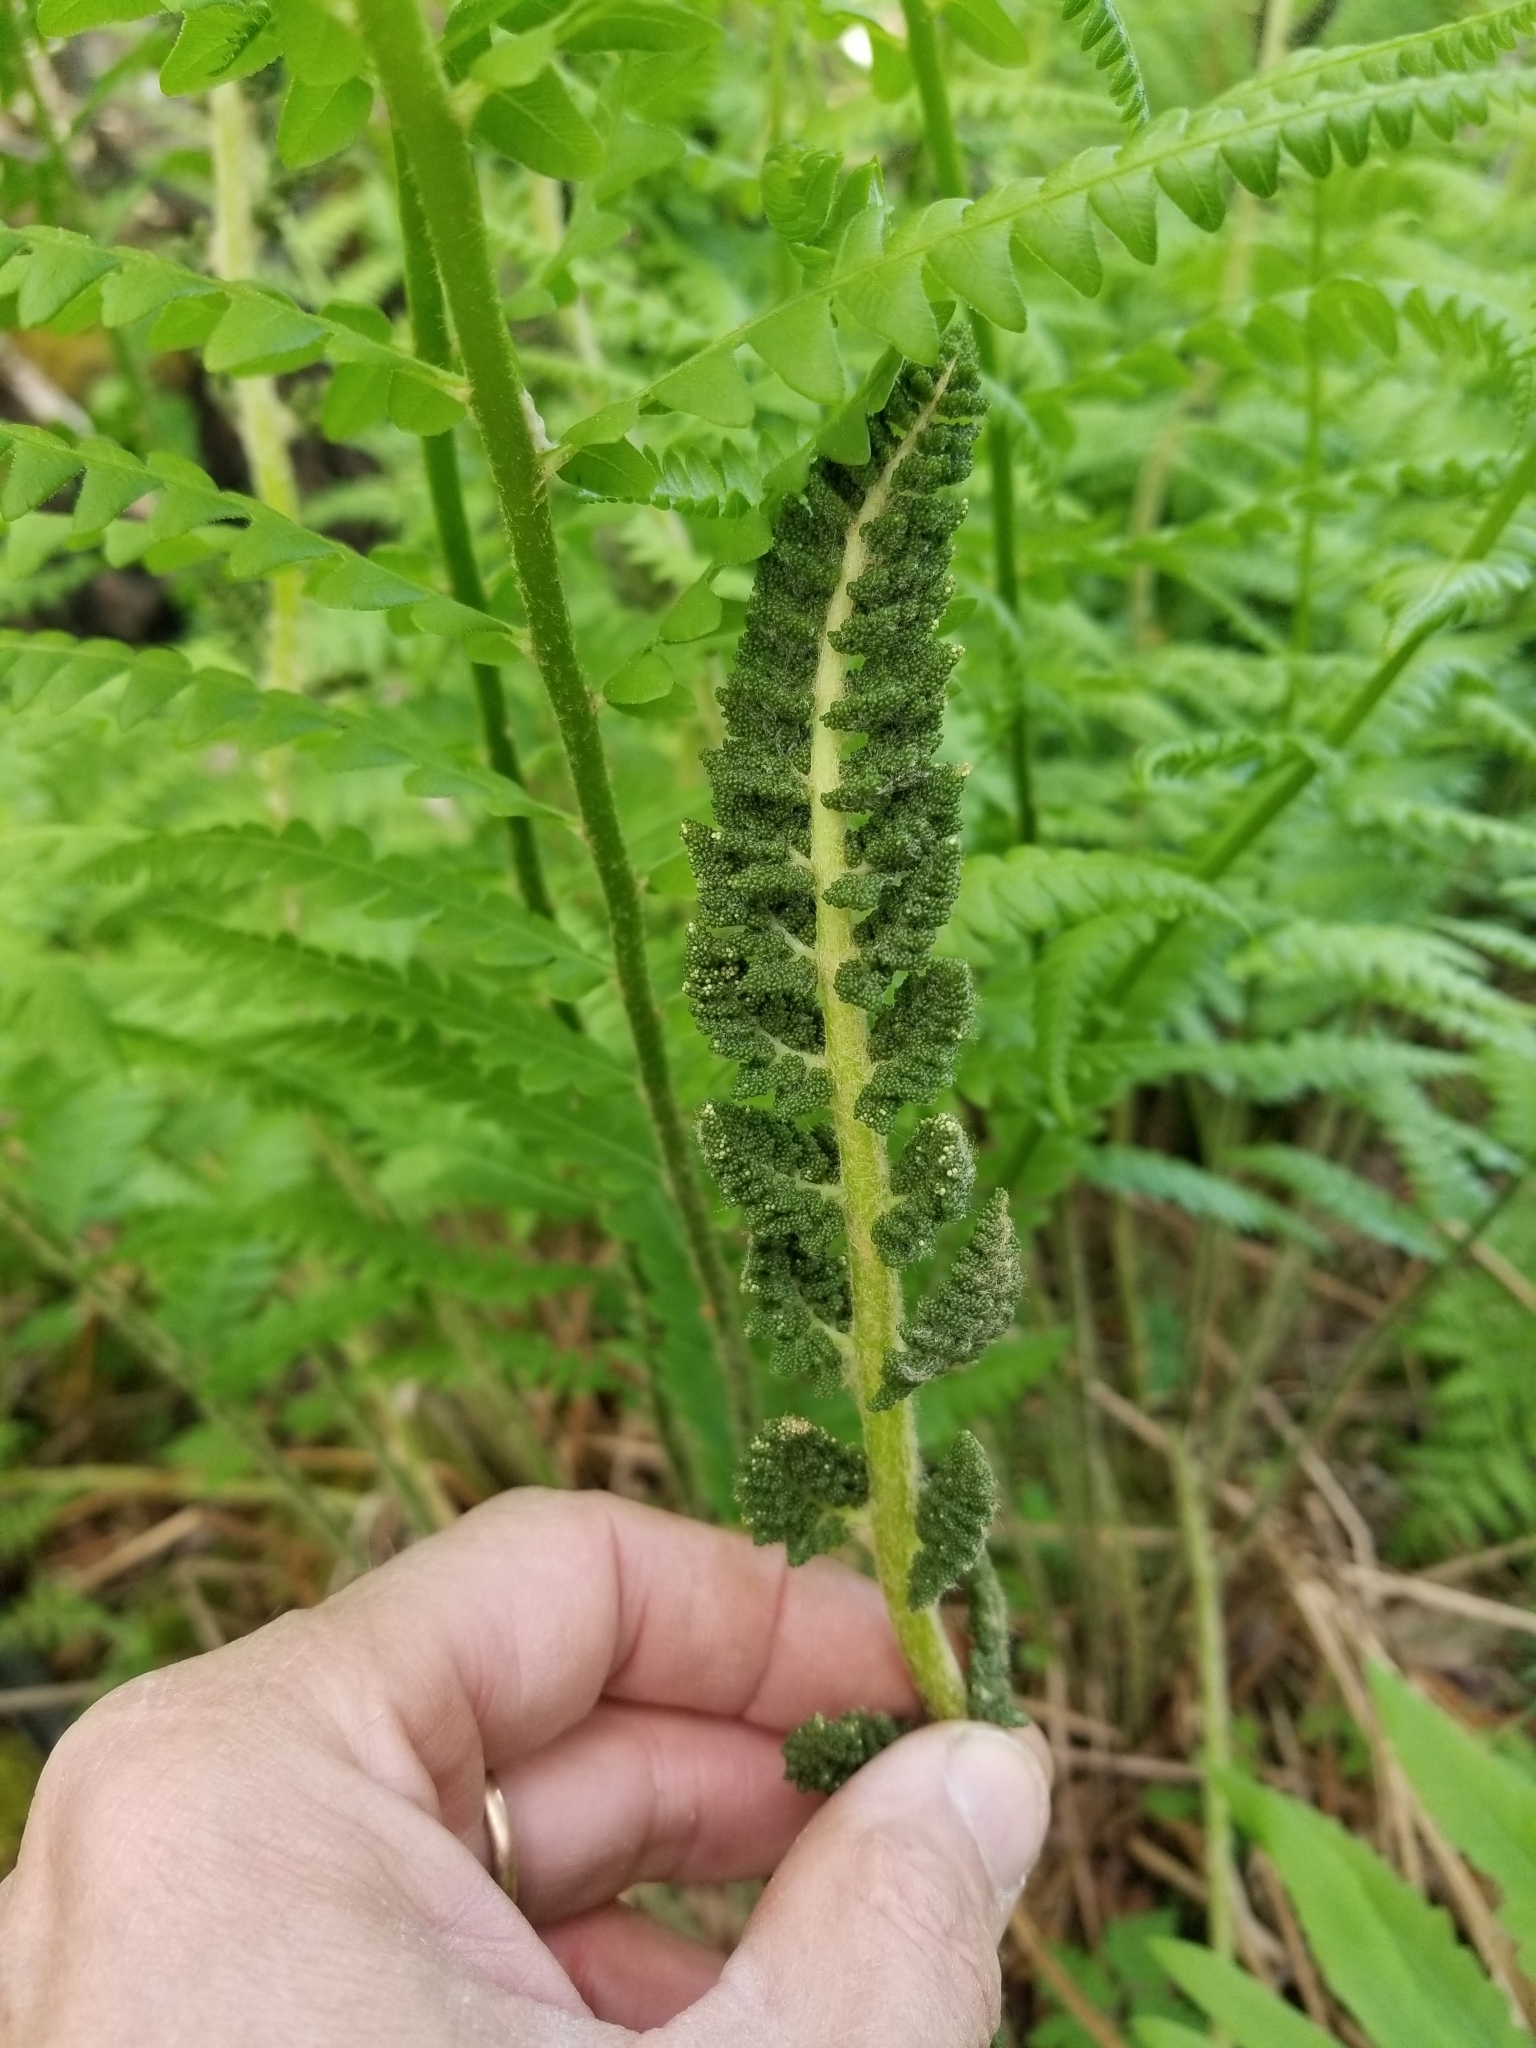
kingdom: Plantae
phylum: Tracheophyta
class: Polypodiopsida
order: Osmundales
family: Osmundaceae
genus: Osmundastrum
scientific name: Osmundastrum cinnamomeum
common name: Cinnamon fern
